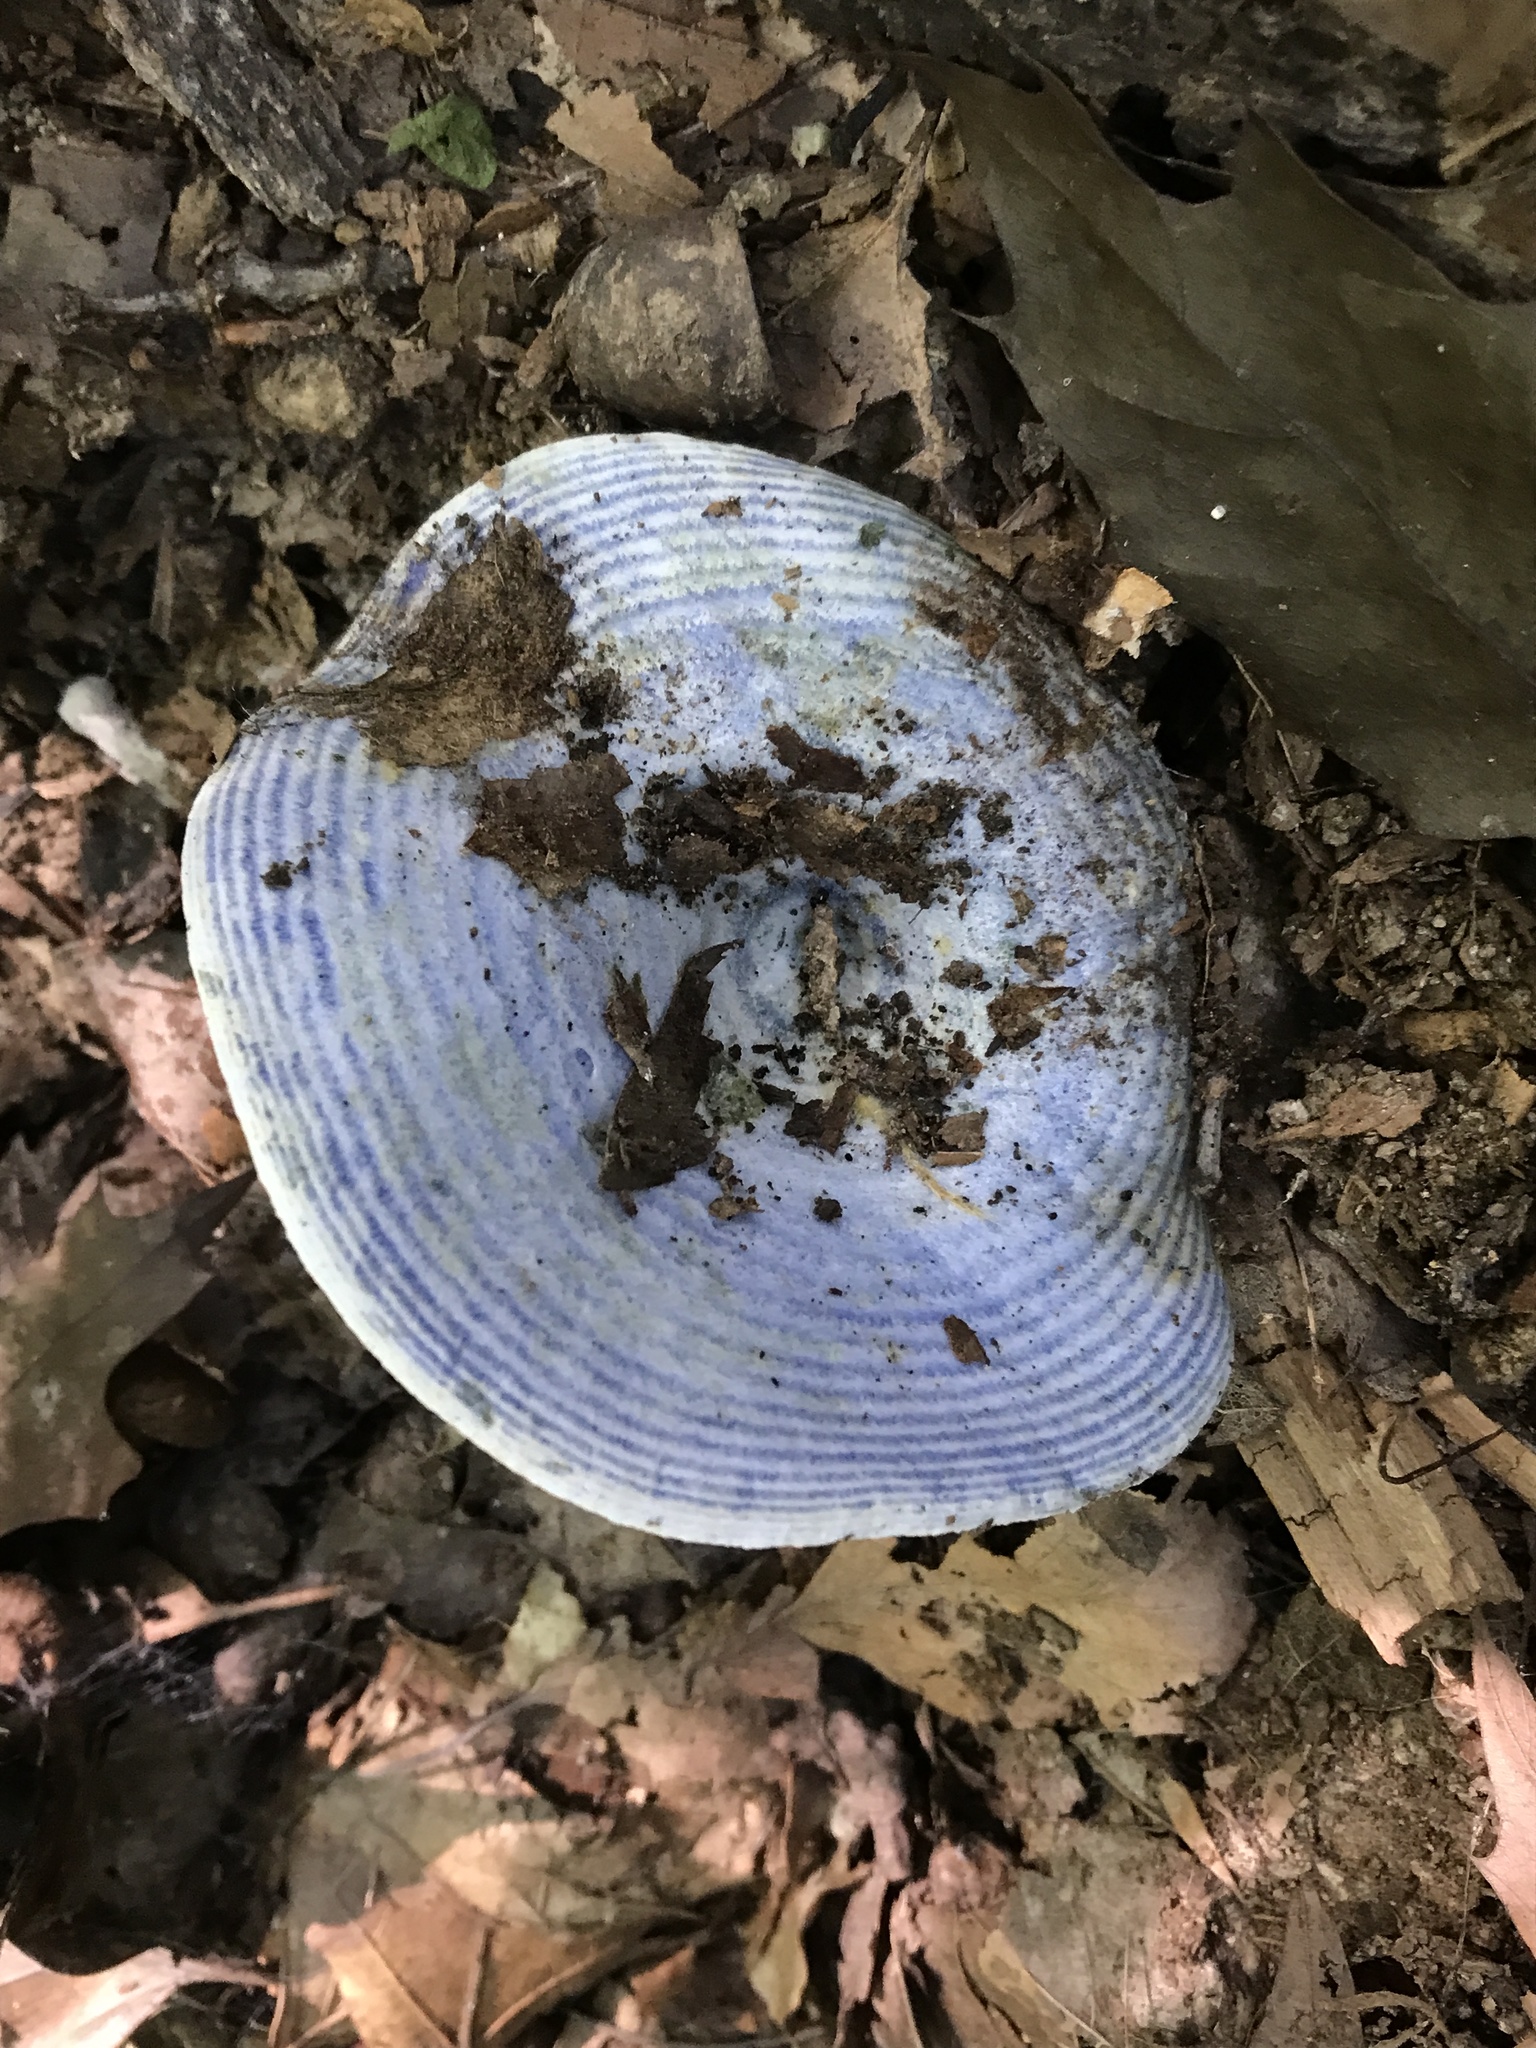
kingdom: Fungi
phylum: Basidiomycota
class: Agaricomycetes
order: Russulales
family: Russulaceae
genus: Lactarius
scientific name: Lactarius indigo
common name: Indigo milk cap
